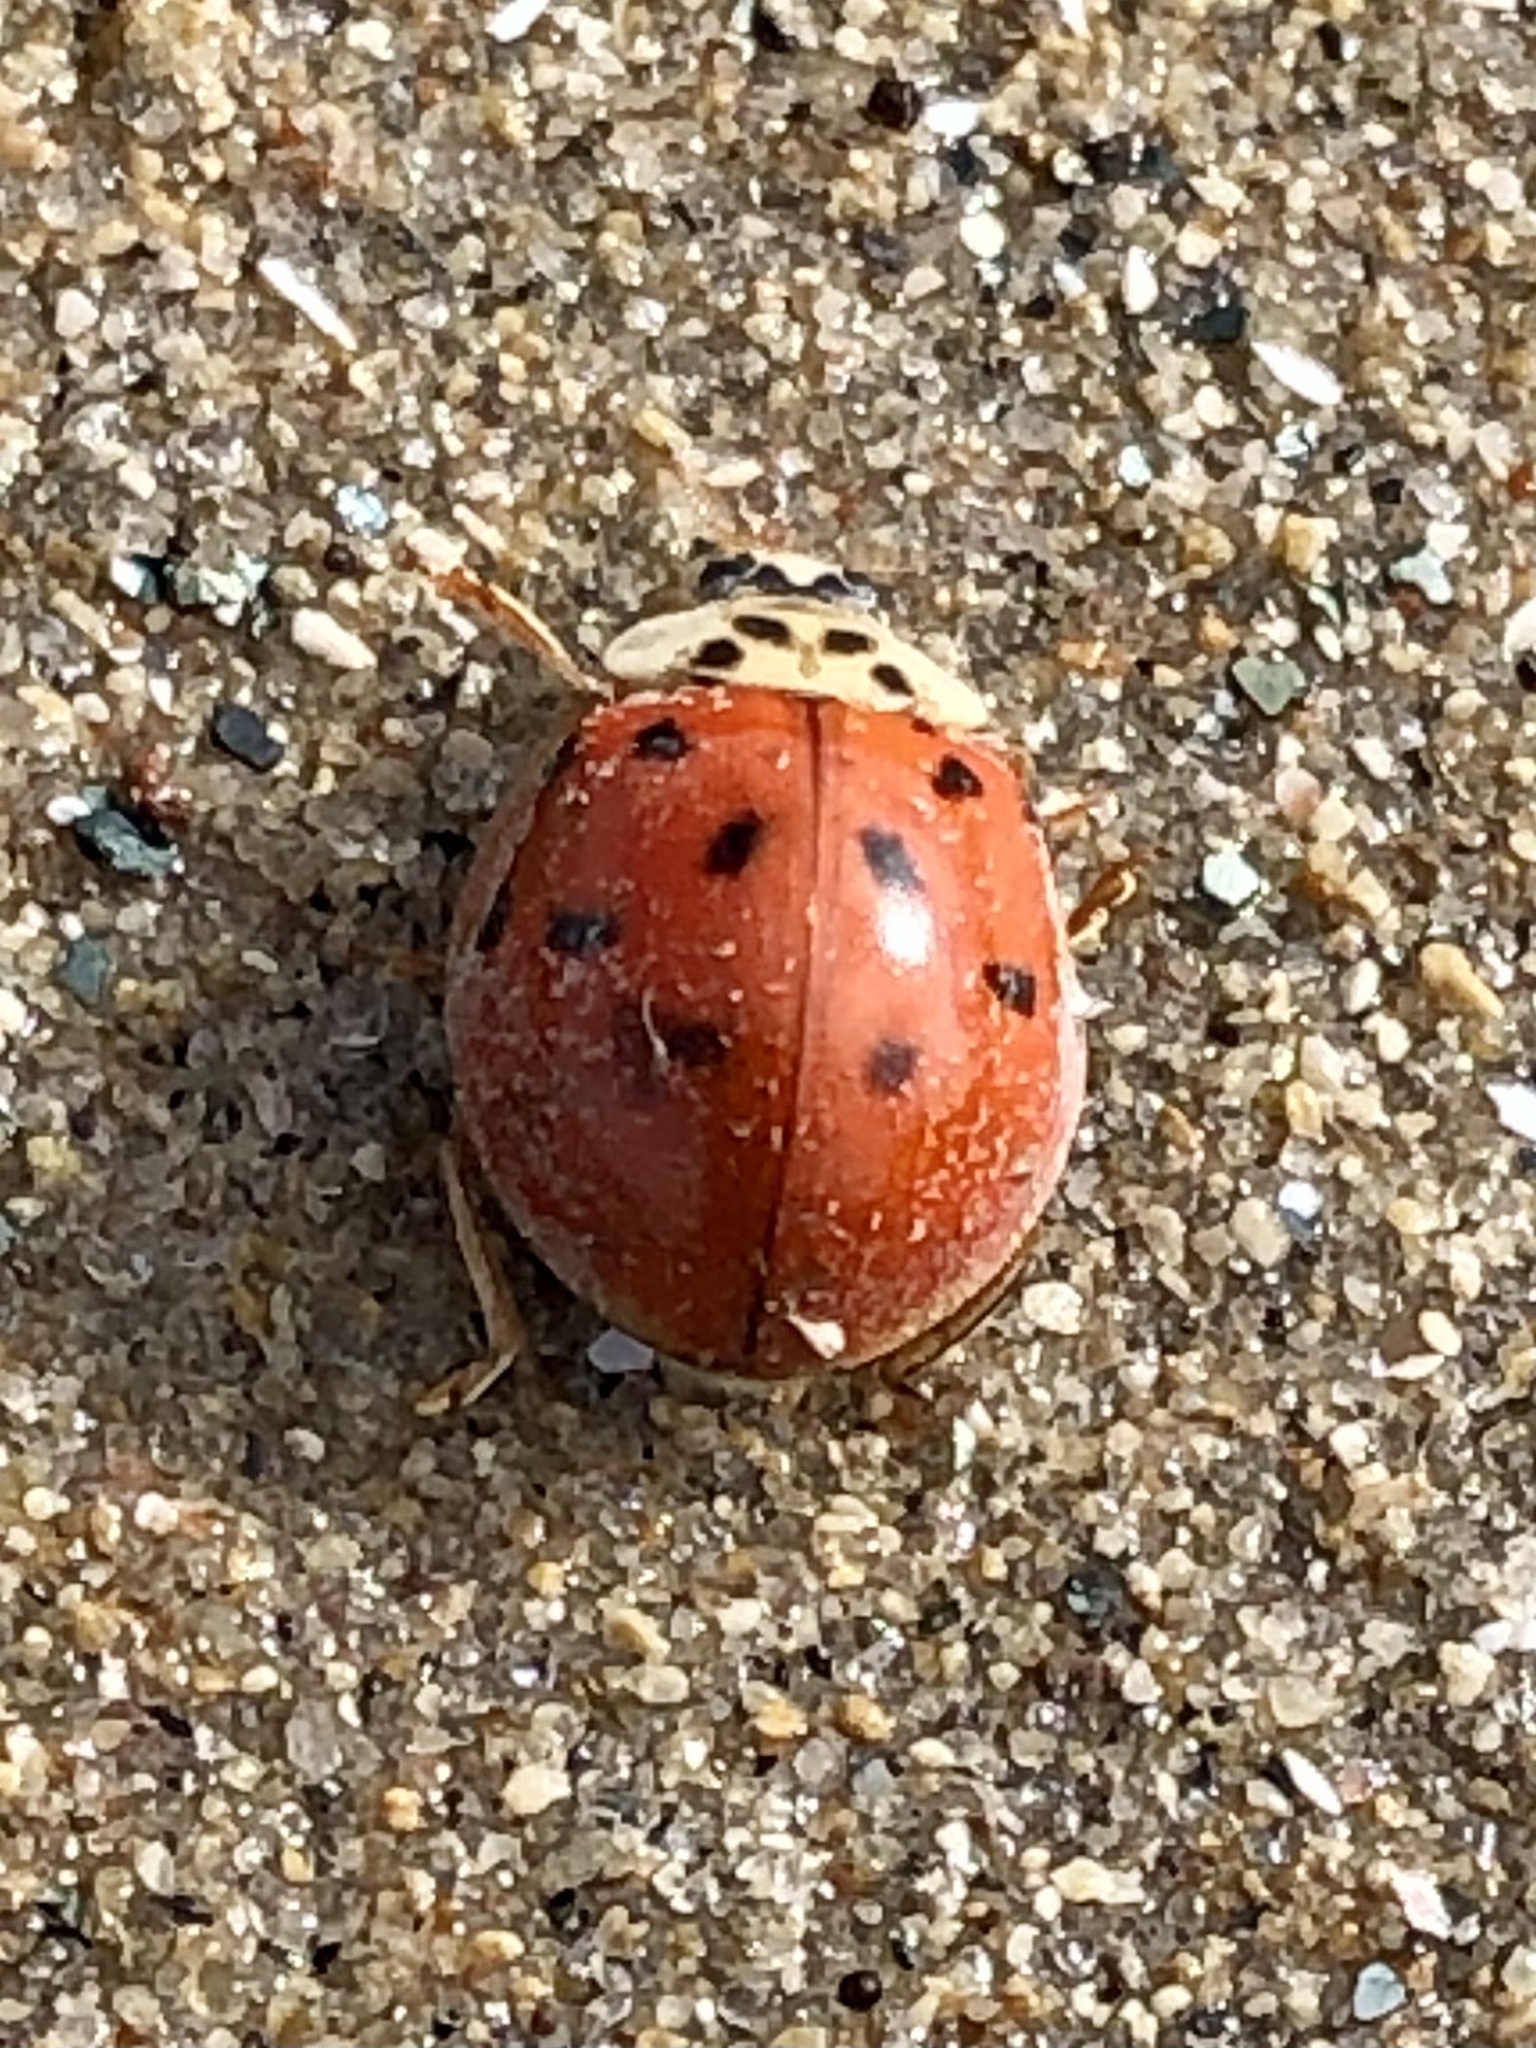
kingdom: Animalia
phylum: Arthropoda
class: Insecta
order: Coleoptera
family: Coccinellidae
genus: Harmonia
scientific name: Harmonia axyridis
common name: Harlequin ladybird
